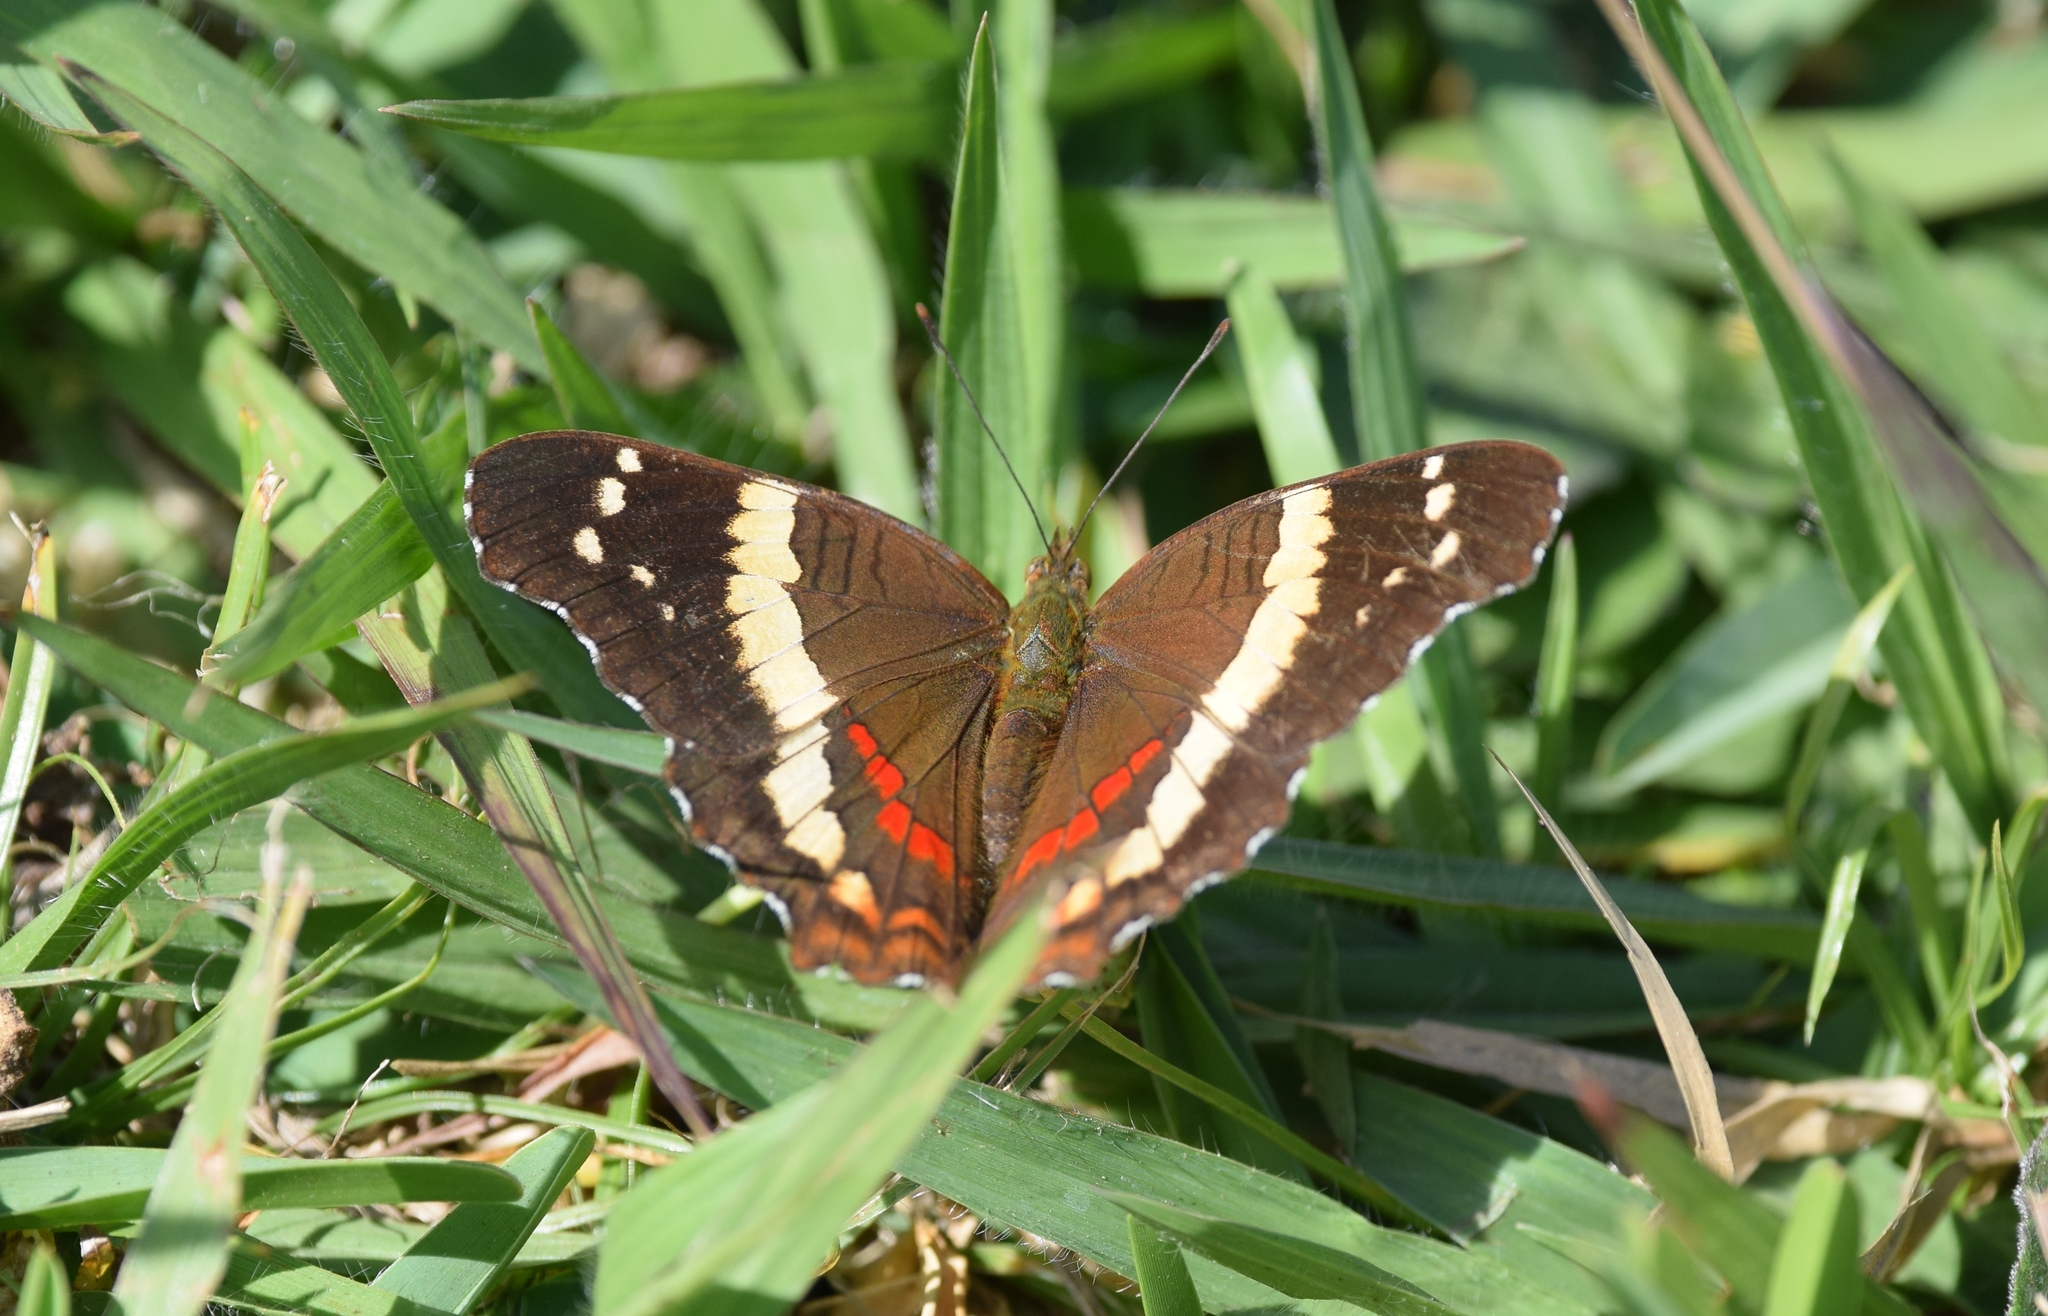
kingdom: Animalia
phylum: Arthropoda
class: Insecta
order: Lepidoptera
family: Nymphalidae
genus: Anartia
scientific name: Anartia fatima
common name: Banded peacock
